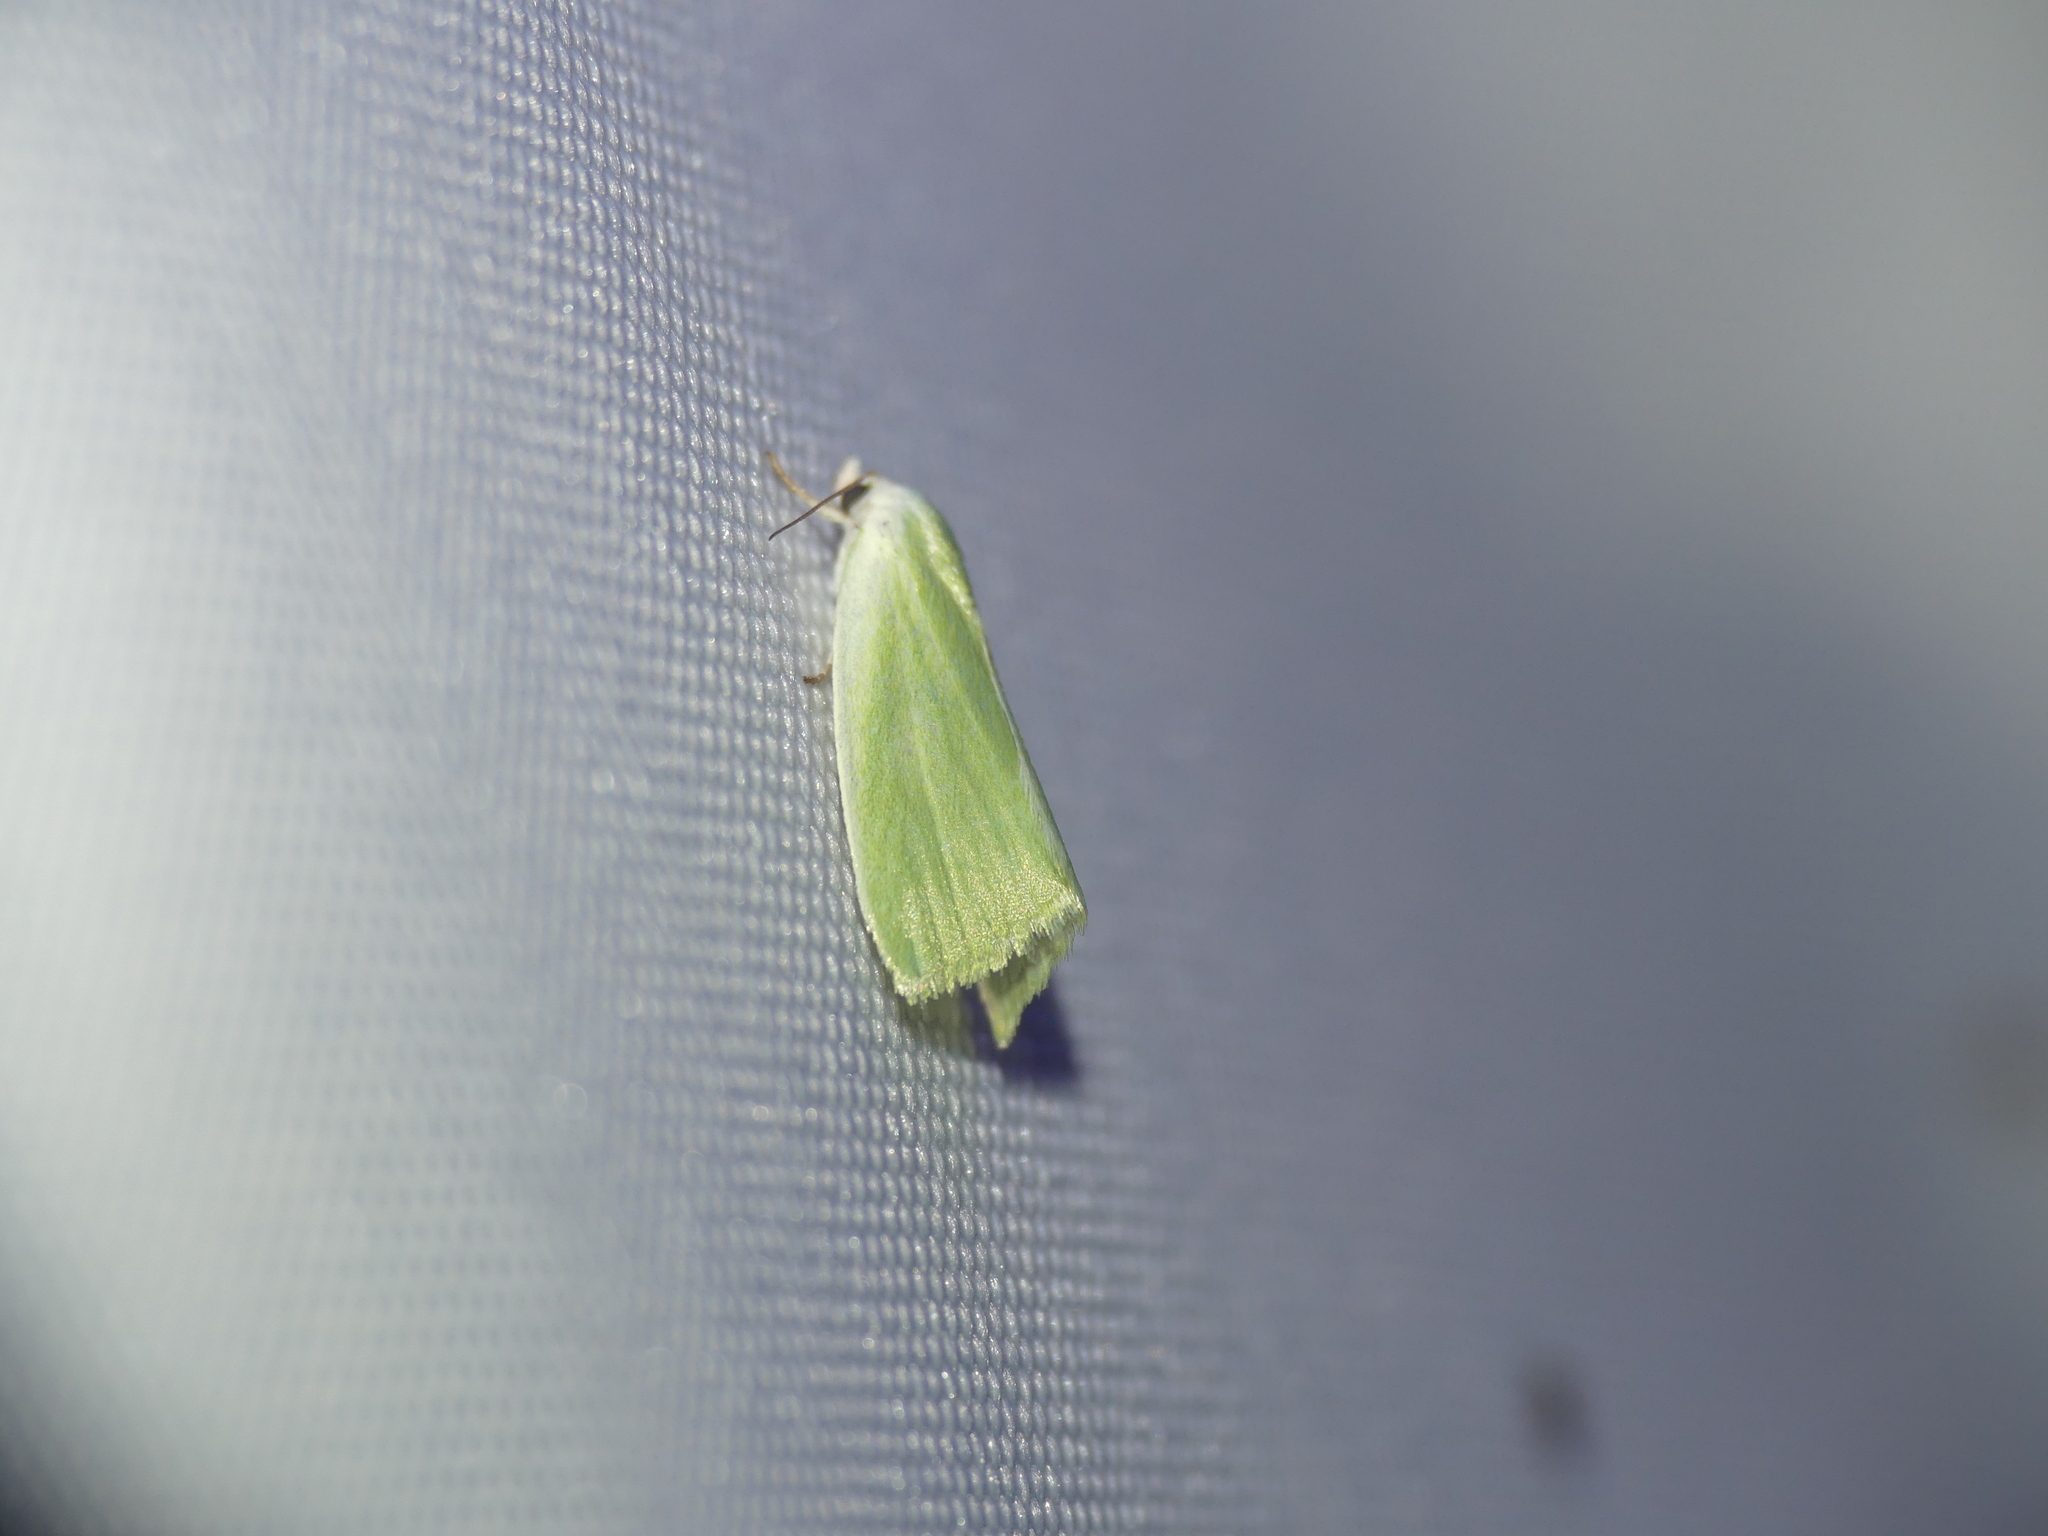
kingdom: Animalia
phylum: Arthropoda
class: Insecta
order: Lepidoptera
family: Nolidae
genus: Earias
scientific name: Earias clorana
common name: Cream-bordered green pea
